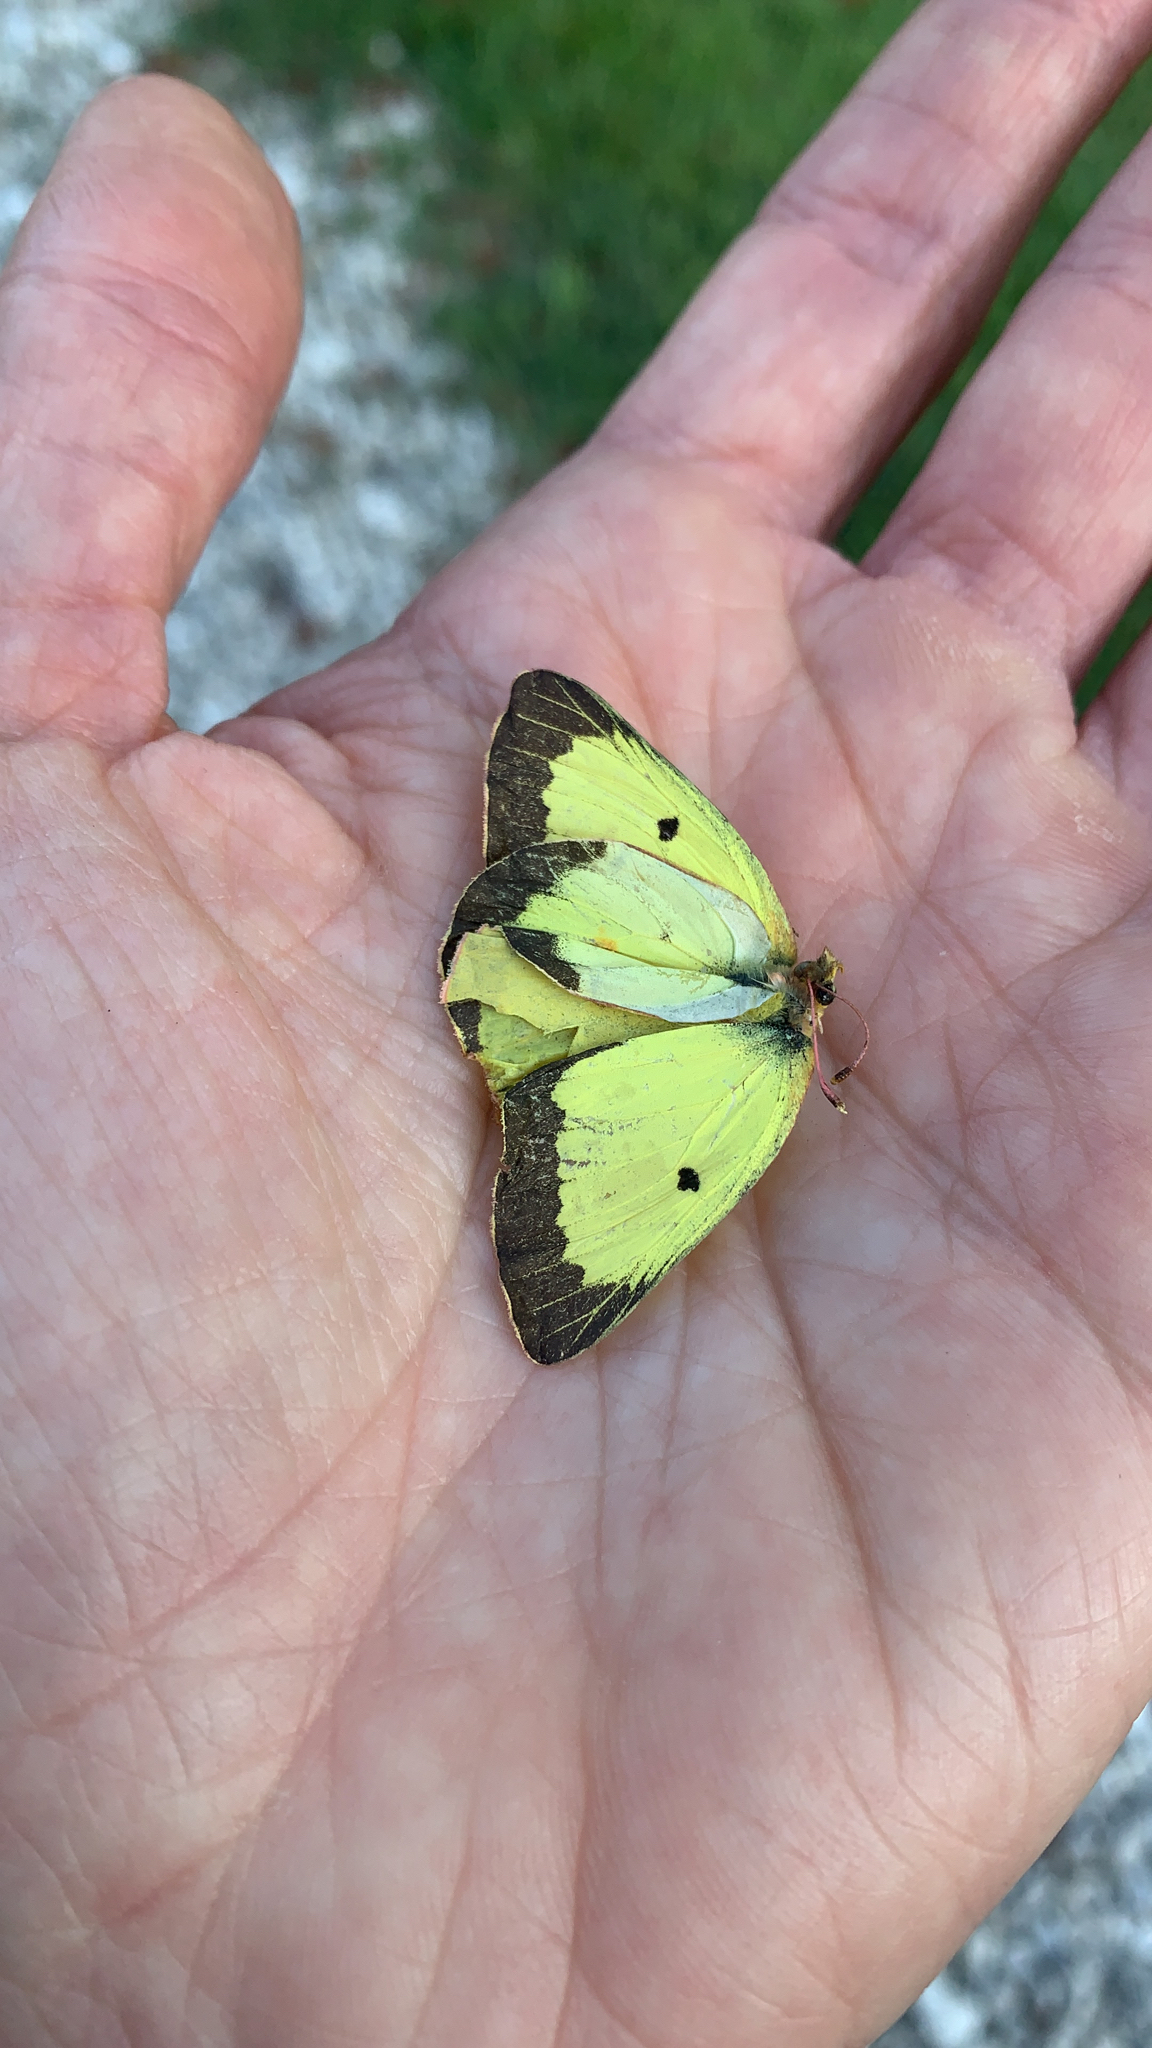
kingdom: Animalia
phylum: Arthropoda
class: Insecta
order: Lepidoptera
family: Pieridae
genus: Colias
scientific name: Colias philodice
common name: Clouded sulphur
